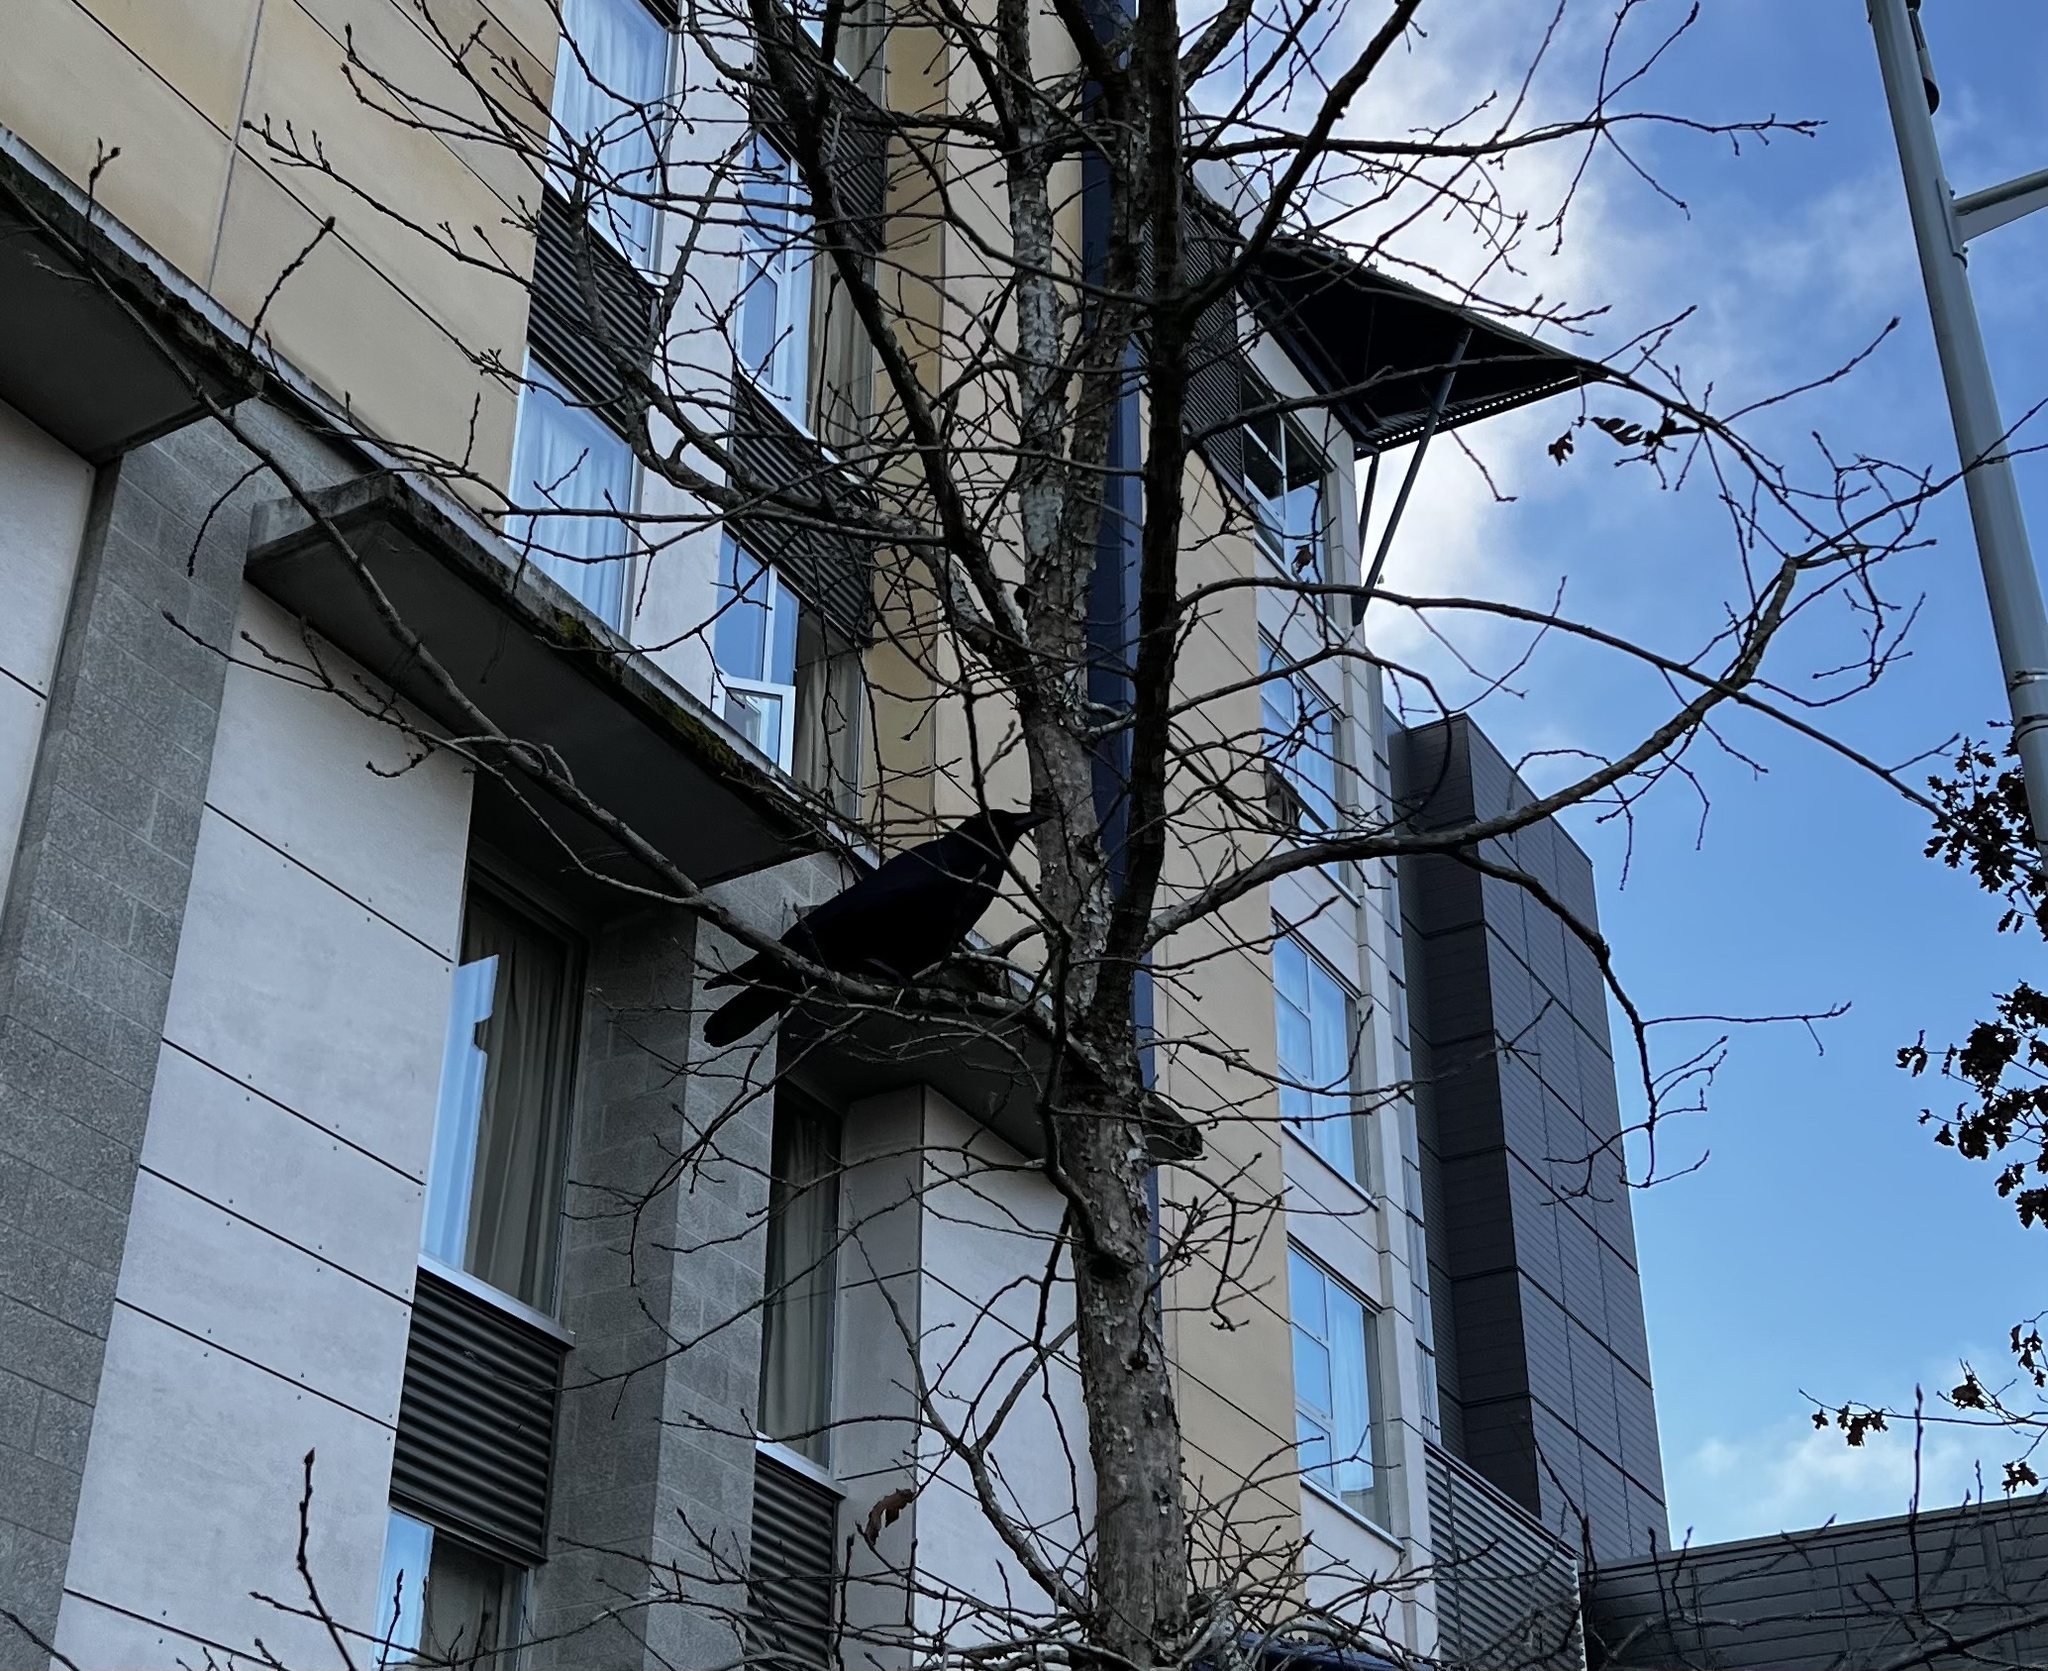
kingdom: Animalia
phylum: Chordata
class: Aves
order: Passeriformes
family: Corvidae
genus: Corvus
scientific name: Corvus brachyrhynchos
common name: American crow
